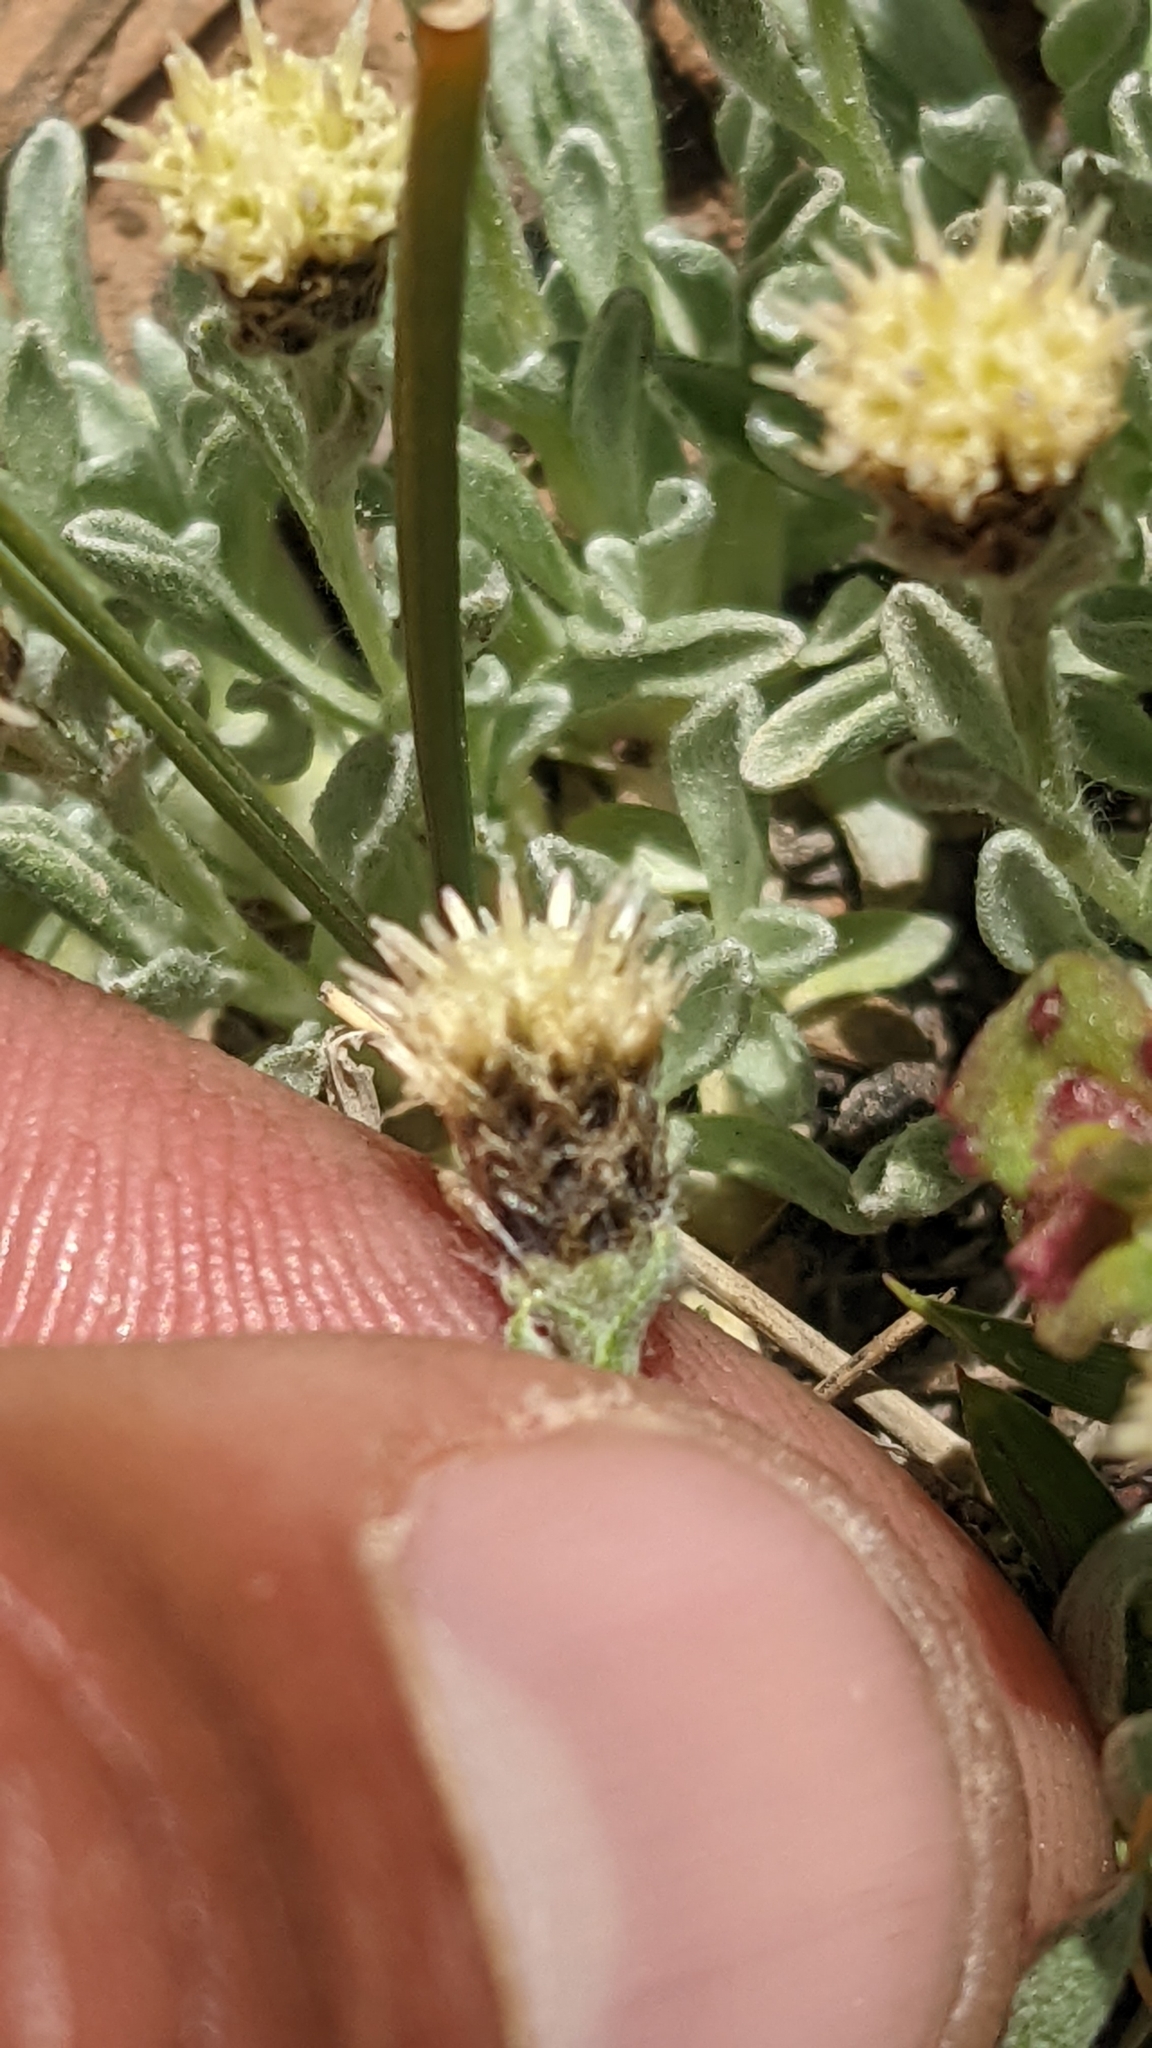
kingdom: Plantae
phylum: Tracheophyta
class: Magnoliopsida
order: Asterales
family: Asteraceae
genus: Antennaria
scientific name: Antennaria dimorpha
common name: Cushion pussytoes
